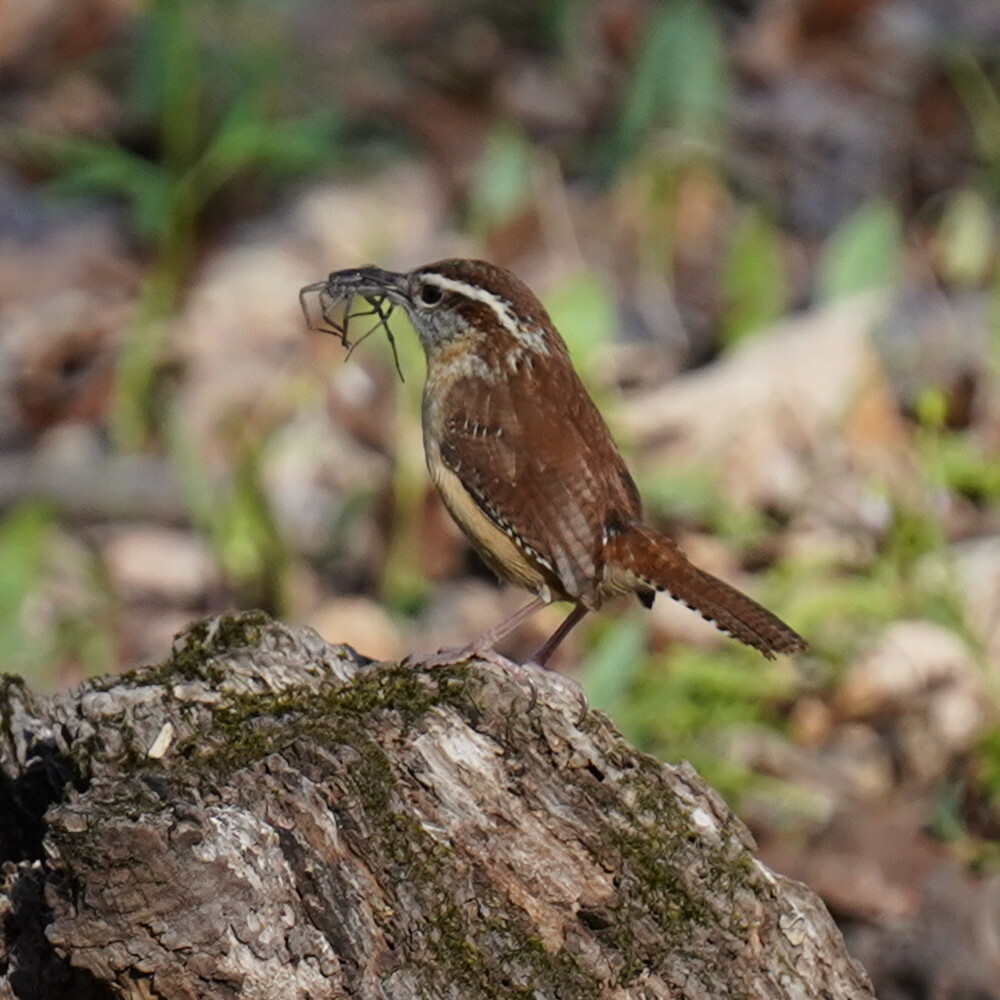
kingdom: Animalia
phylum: Chordata
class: Aves
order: Passeriformes
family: Troglodytidae
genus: Thryothorus
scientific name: Thryothorus ludovicianus
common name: Carolina wren
